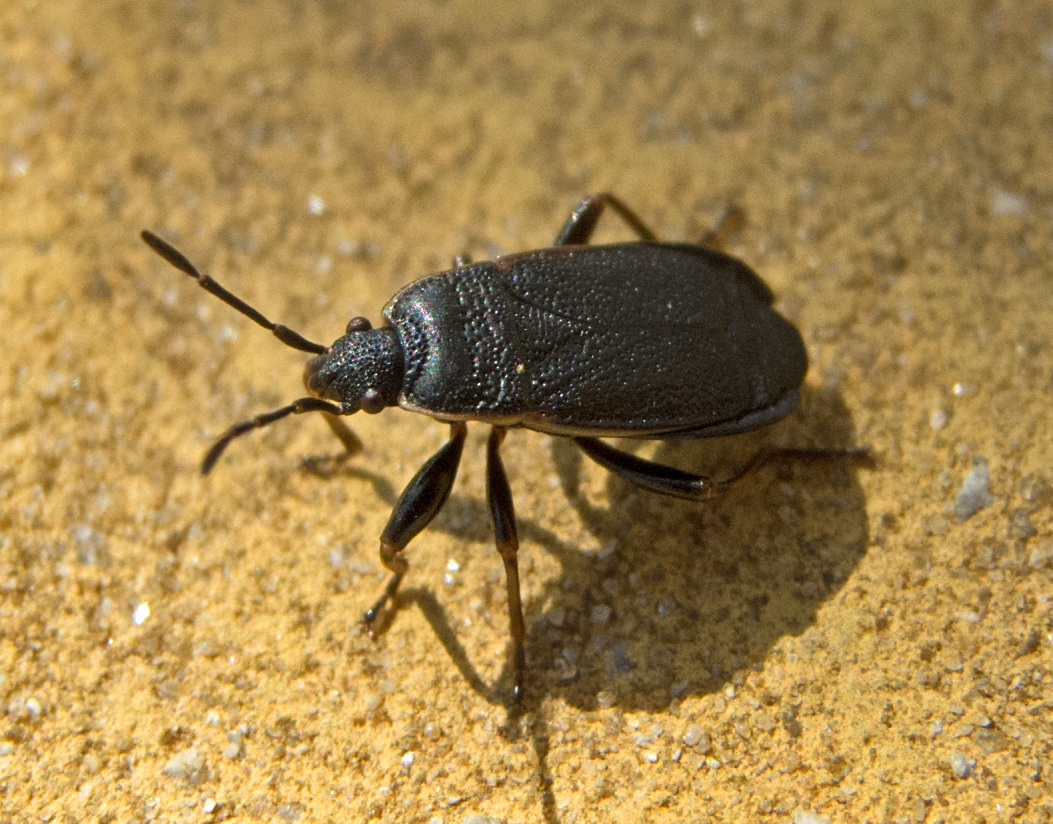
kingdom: Animalia
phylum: Arthropoda
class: Insecta
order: Hemiptera
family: Pyrrhocoridae
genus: Pyrrhocoris
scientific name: Pyrrhocoris marginatus
